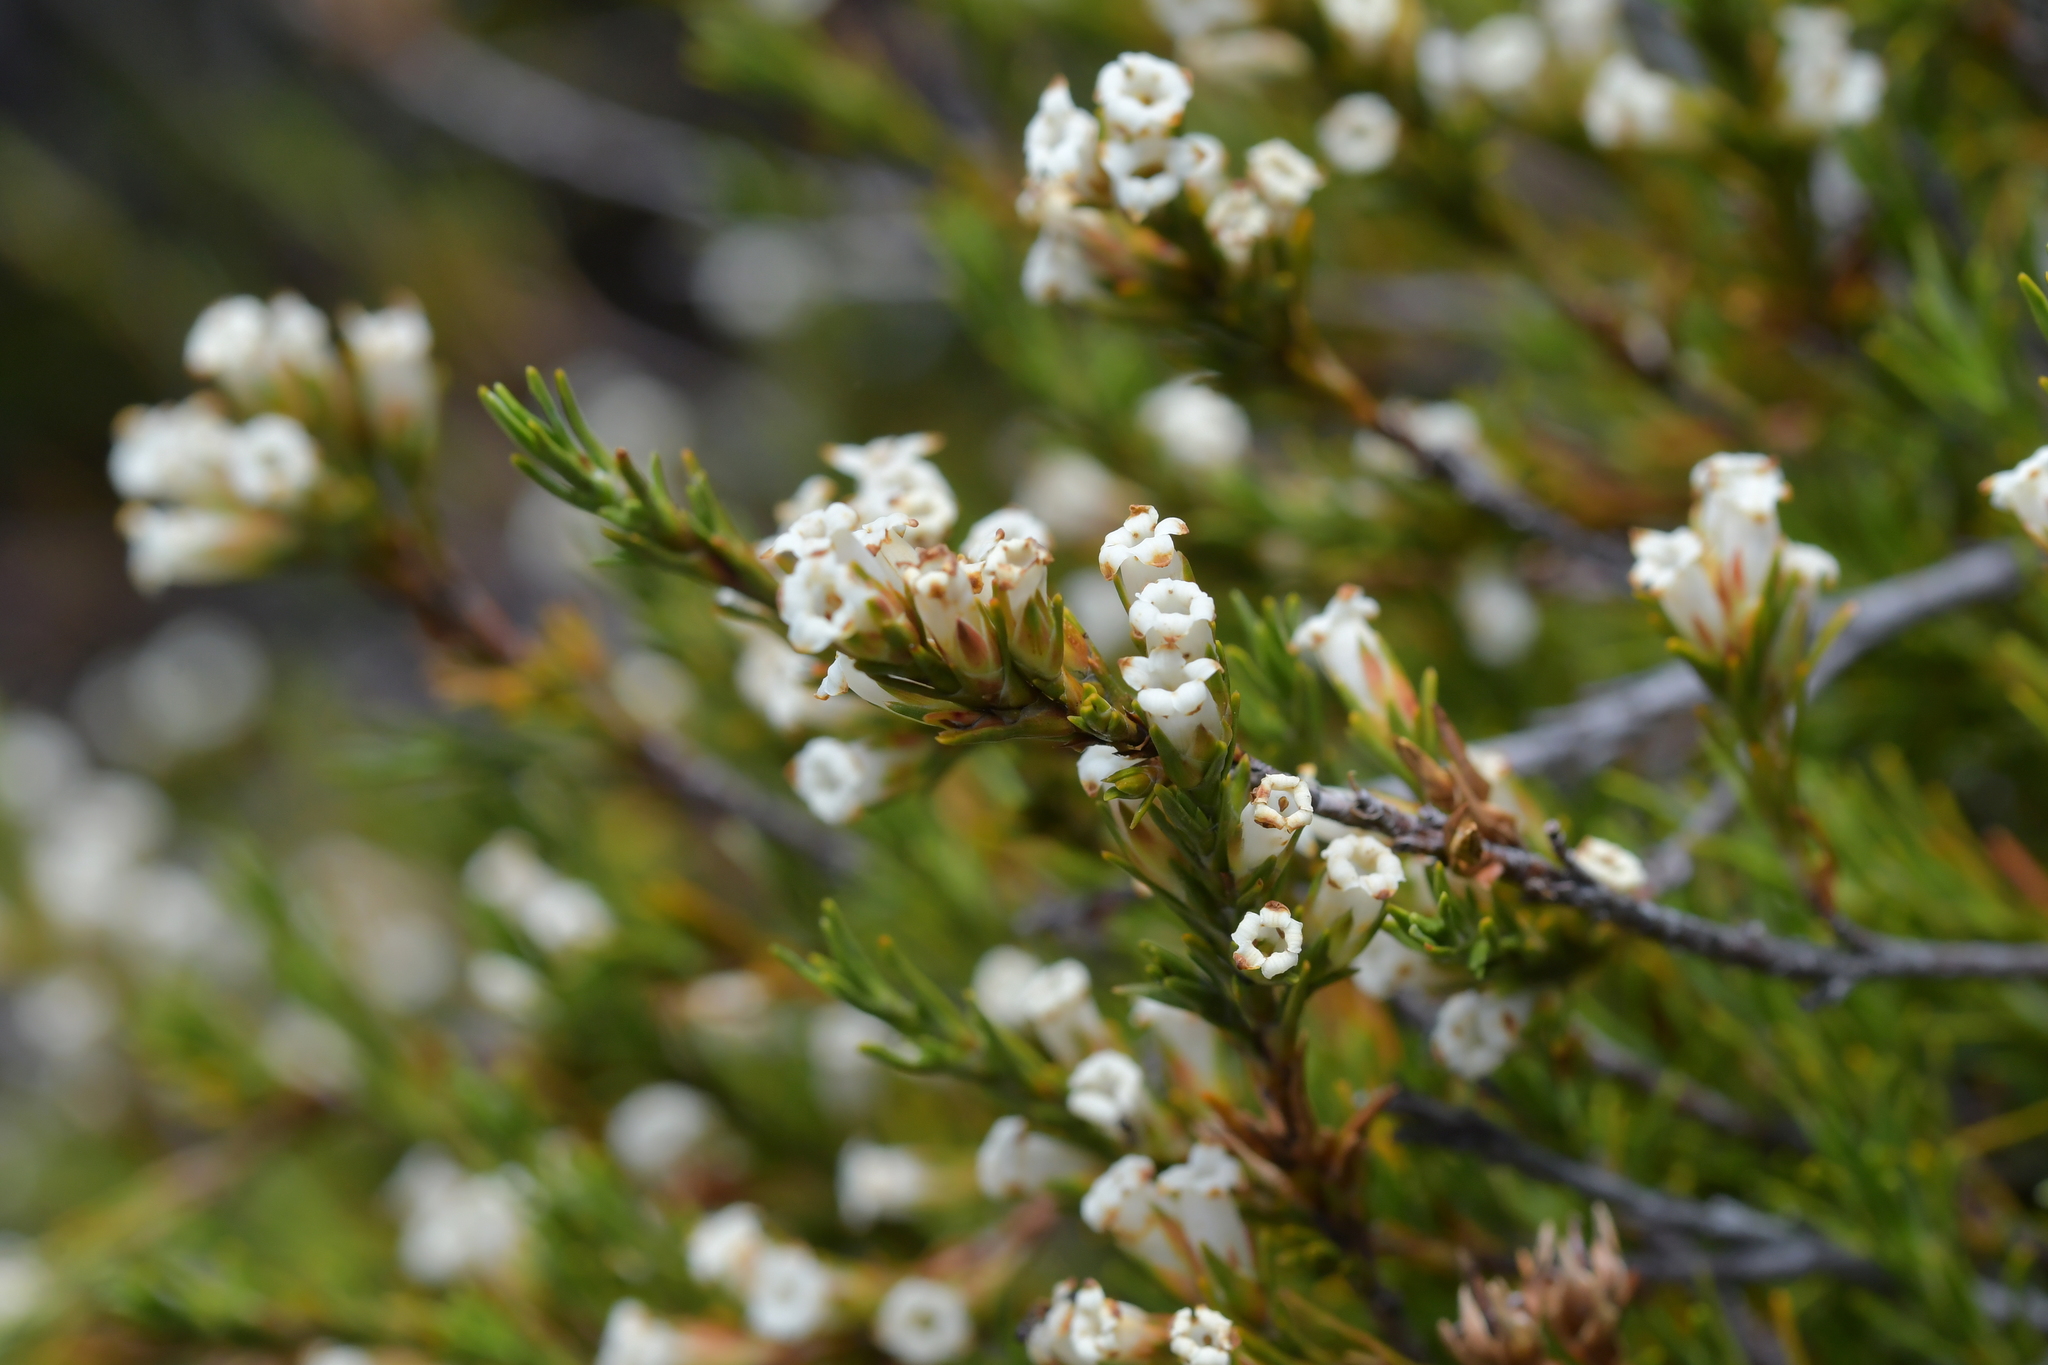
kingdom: Plantae
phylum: Tracheophyta
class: Magnoliopsida
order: Ericales
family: Ericaceae
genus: Dracophyllum
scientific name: Dracophyllum rosmarinifolium
